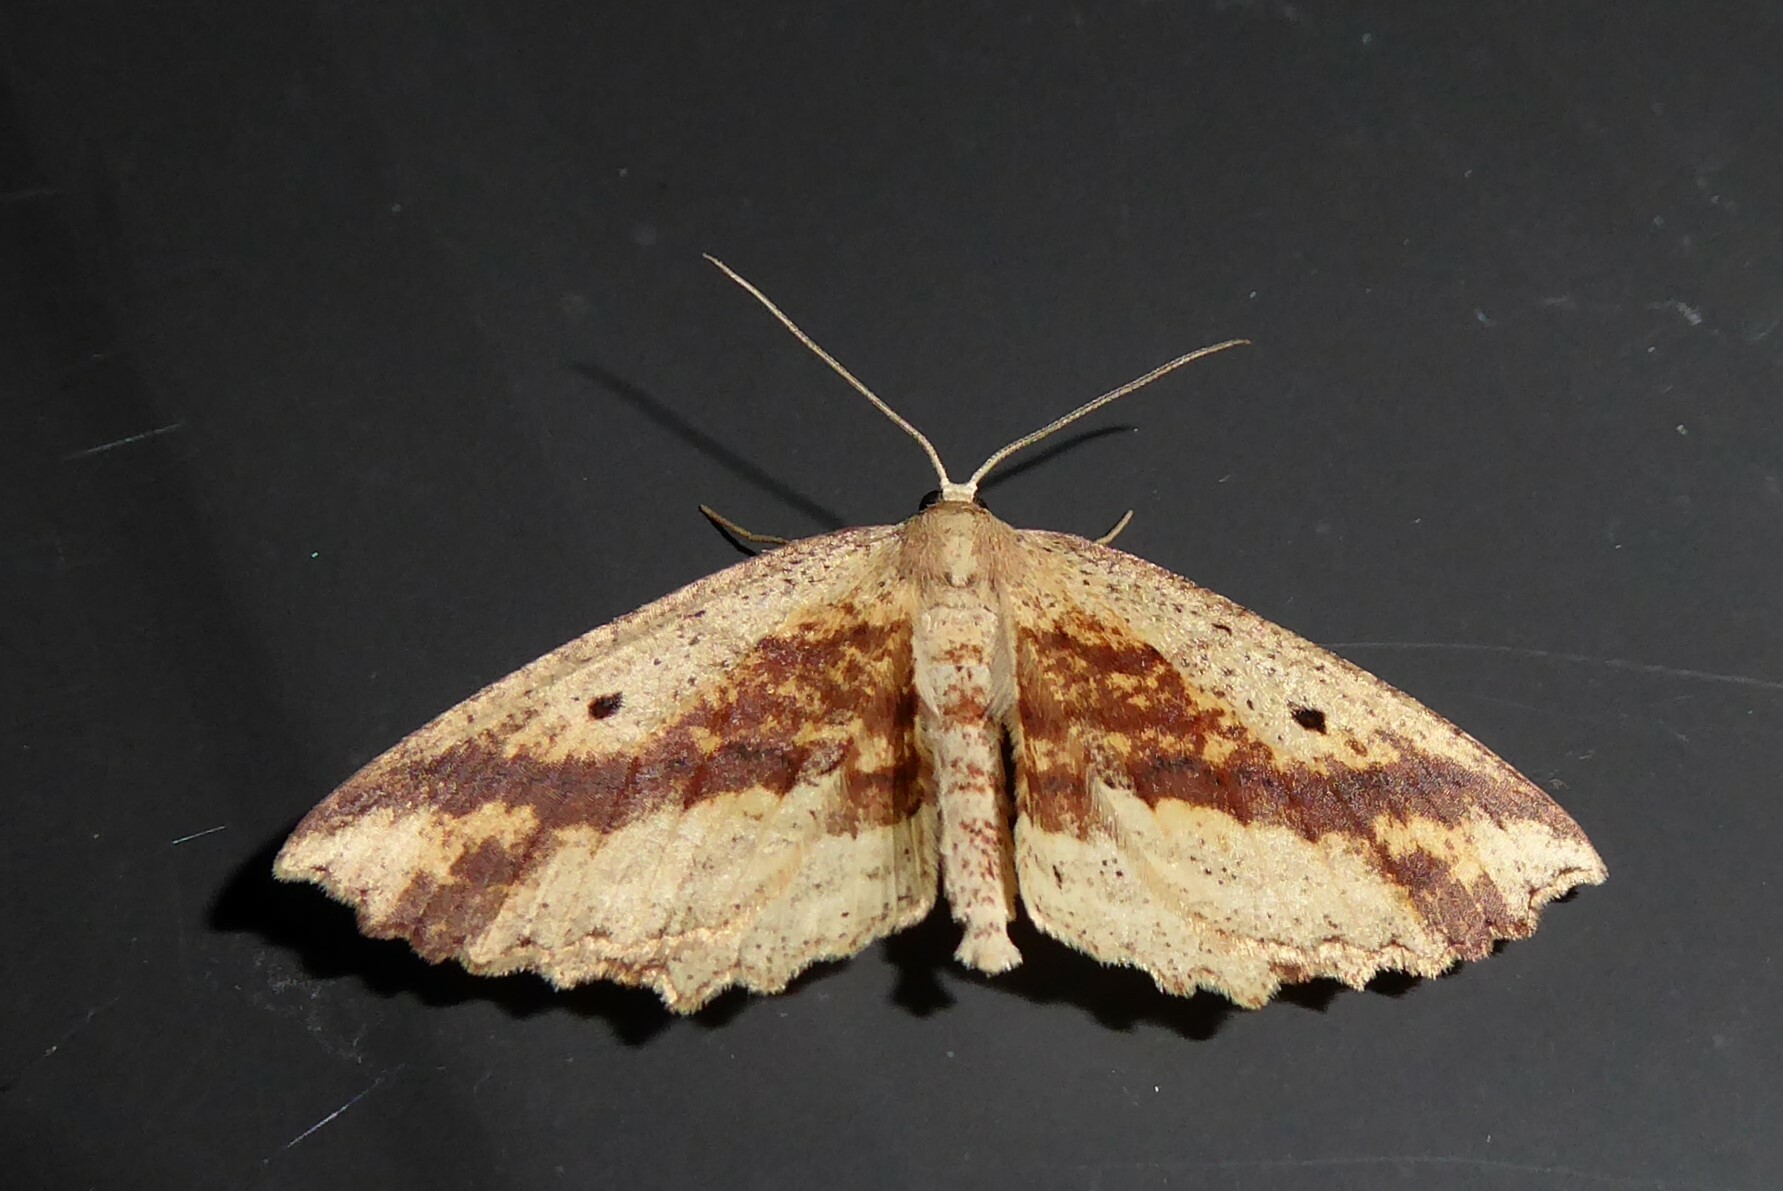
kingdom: Animalia
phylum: Arthropoda
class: Insecta
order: Lepidoptera
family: Geometridae
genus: Xyridacma
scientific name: Xyridacma veronicae
